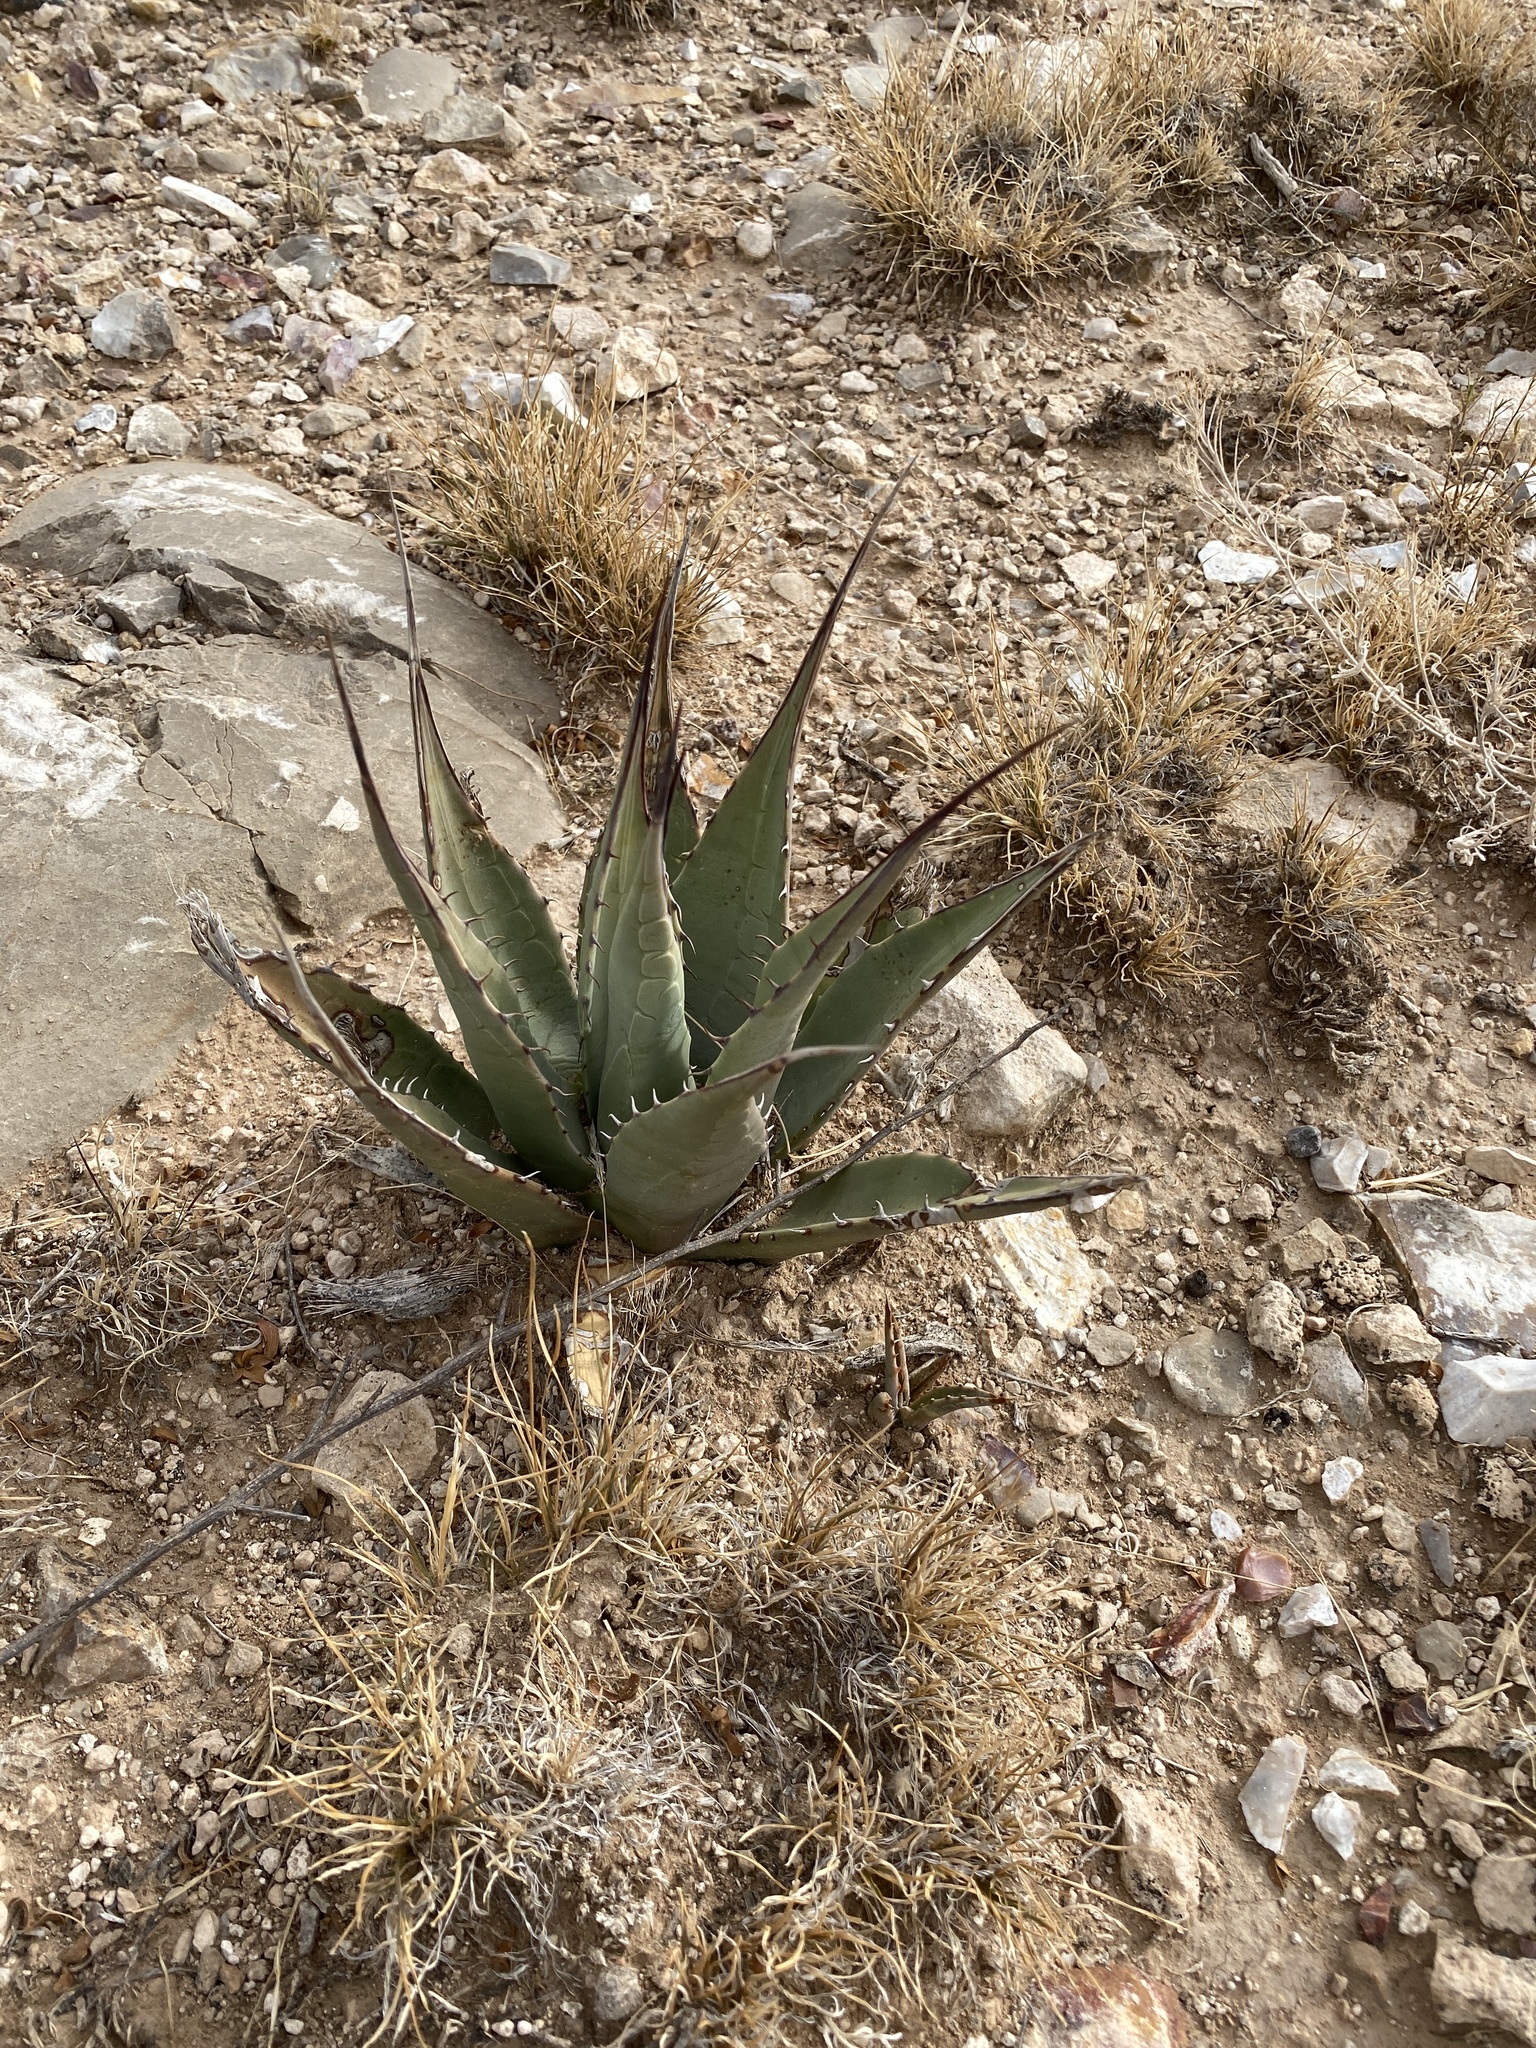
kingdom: Plantae
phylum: Tracheophyta
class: Liliopsida
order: Asparagales
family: Asparagaceae
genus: Agave
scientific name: Agave parryi
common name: Parry's agave
